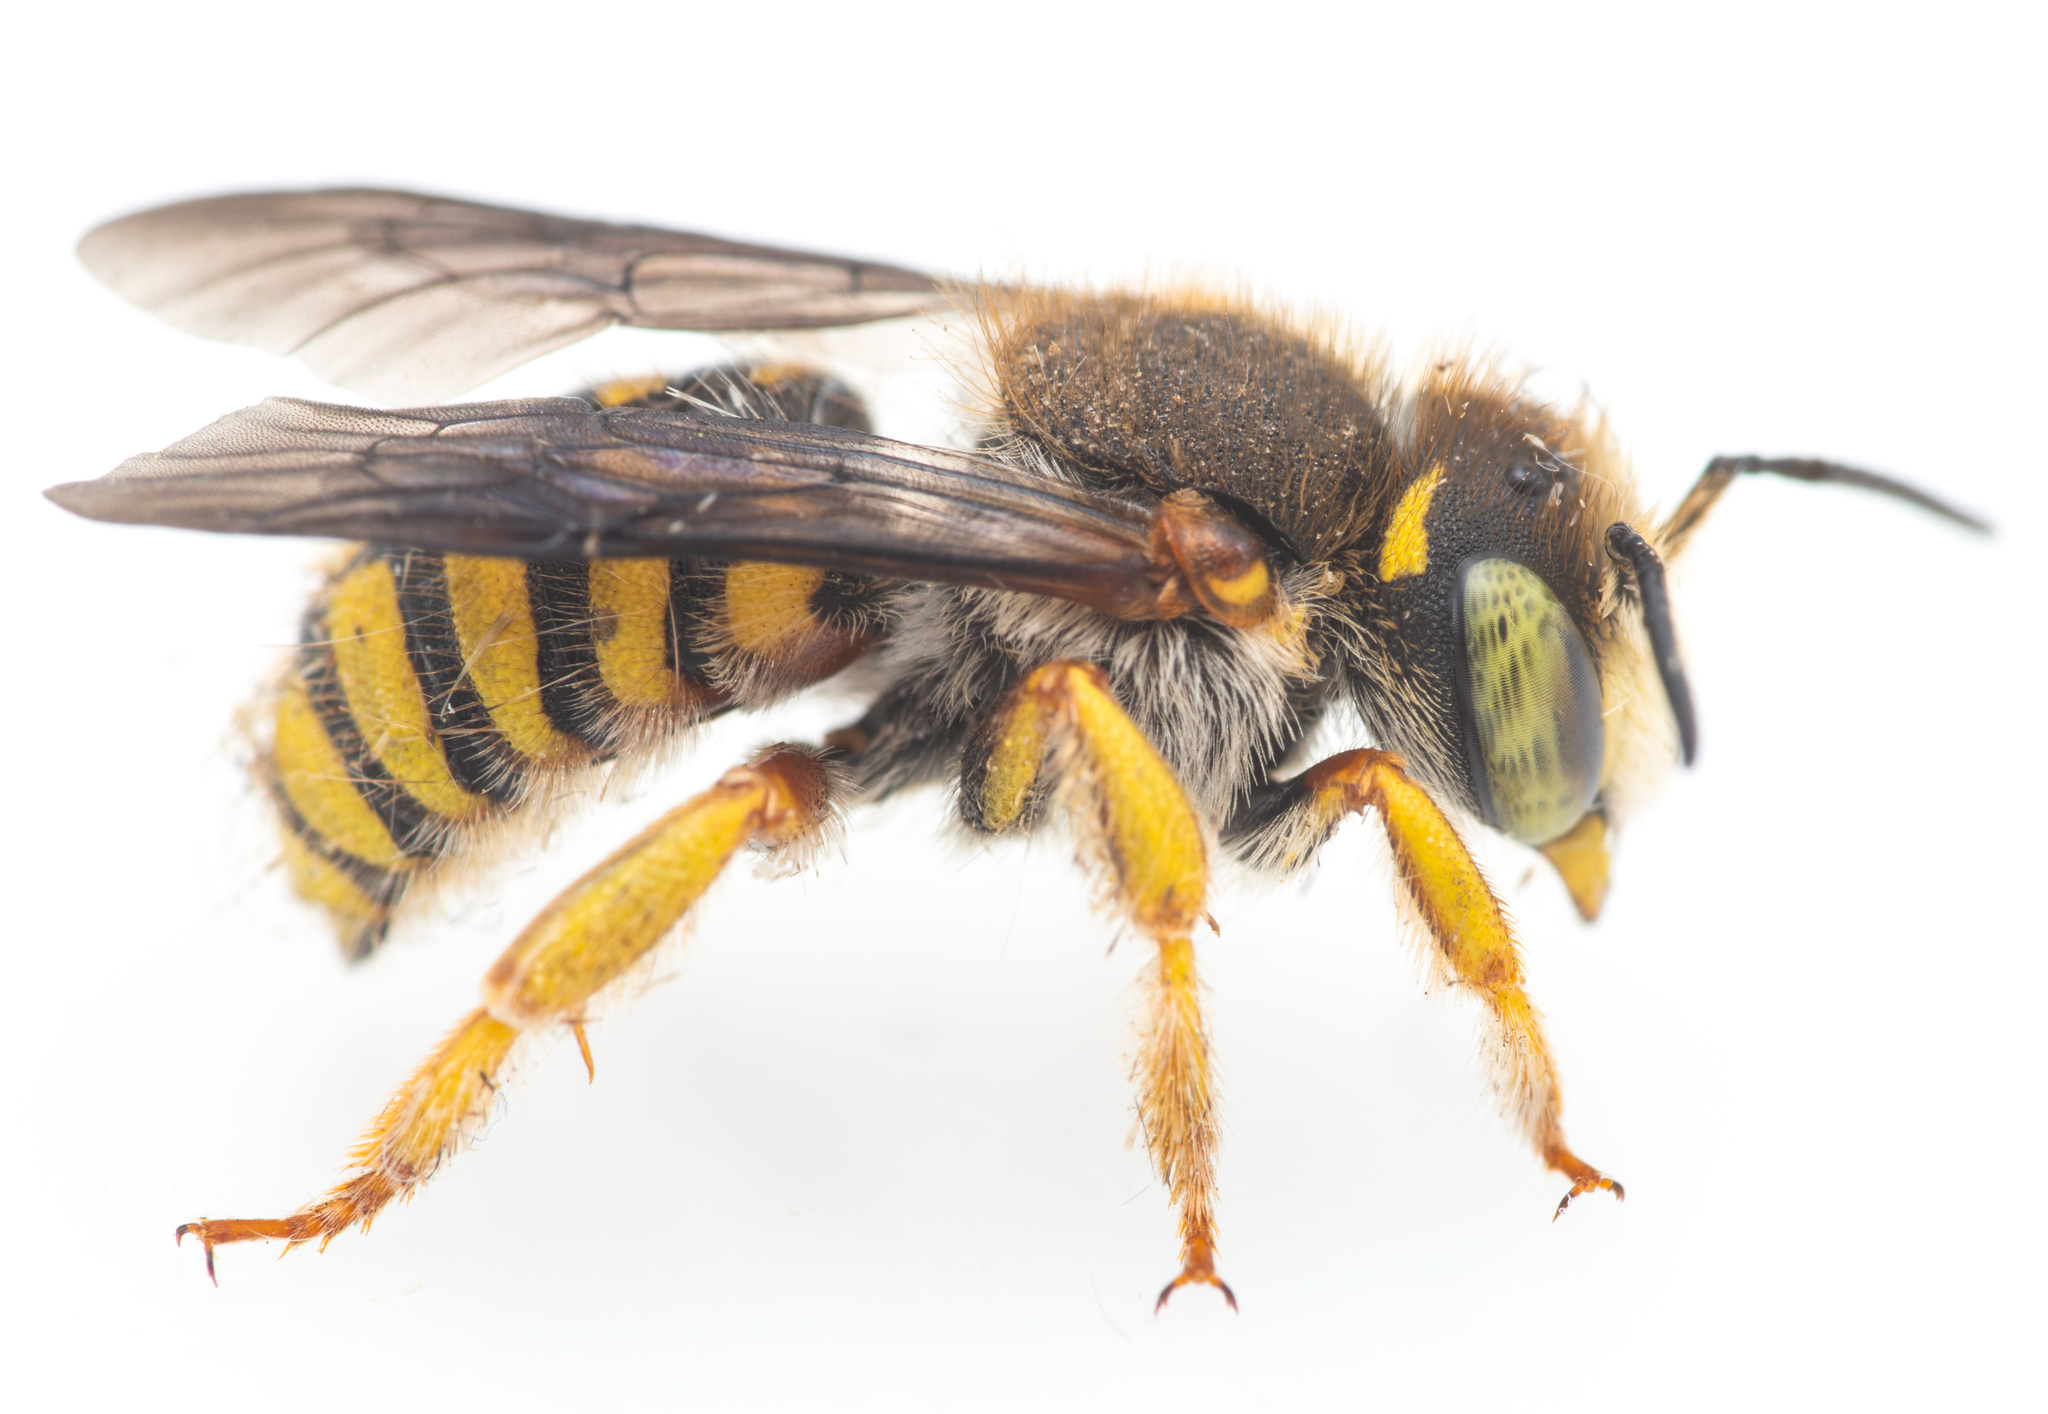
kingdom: Animalia
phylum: Arthropoda
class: Insecta
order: Hymenoptera
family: Megachilidae
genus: Anthidium
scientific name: Anthidium oblongatum
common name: Oblong wool carder bee
